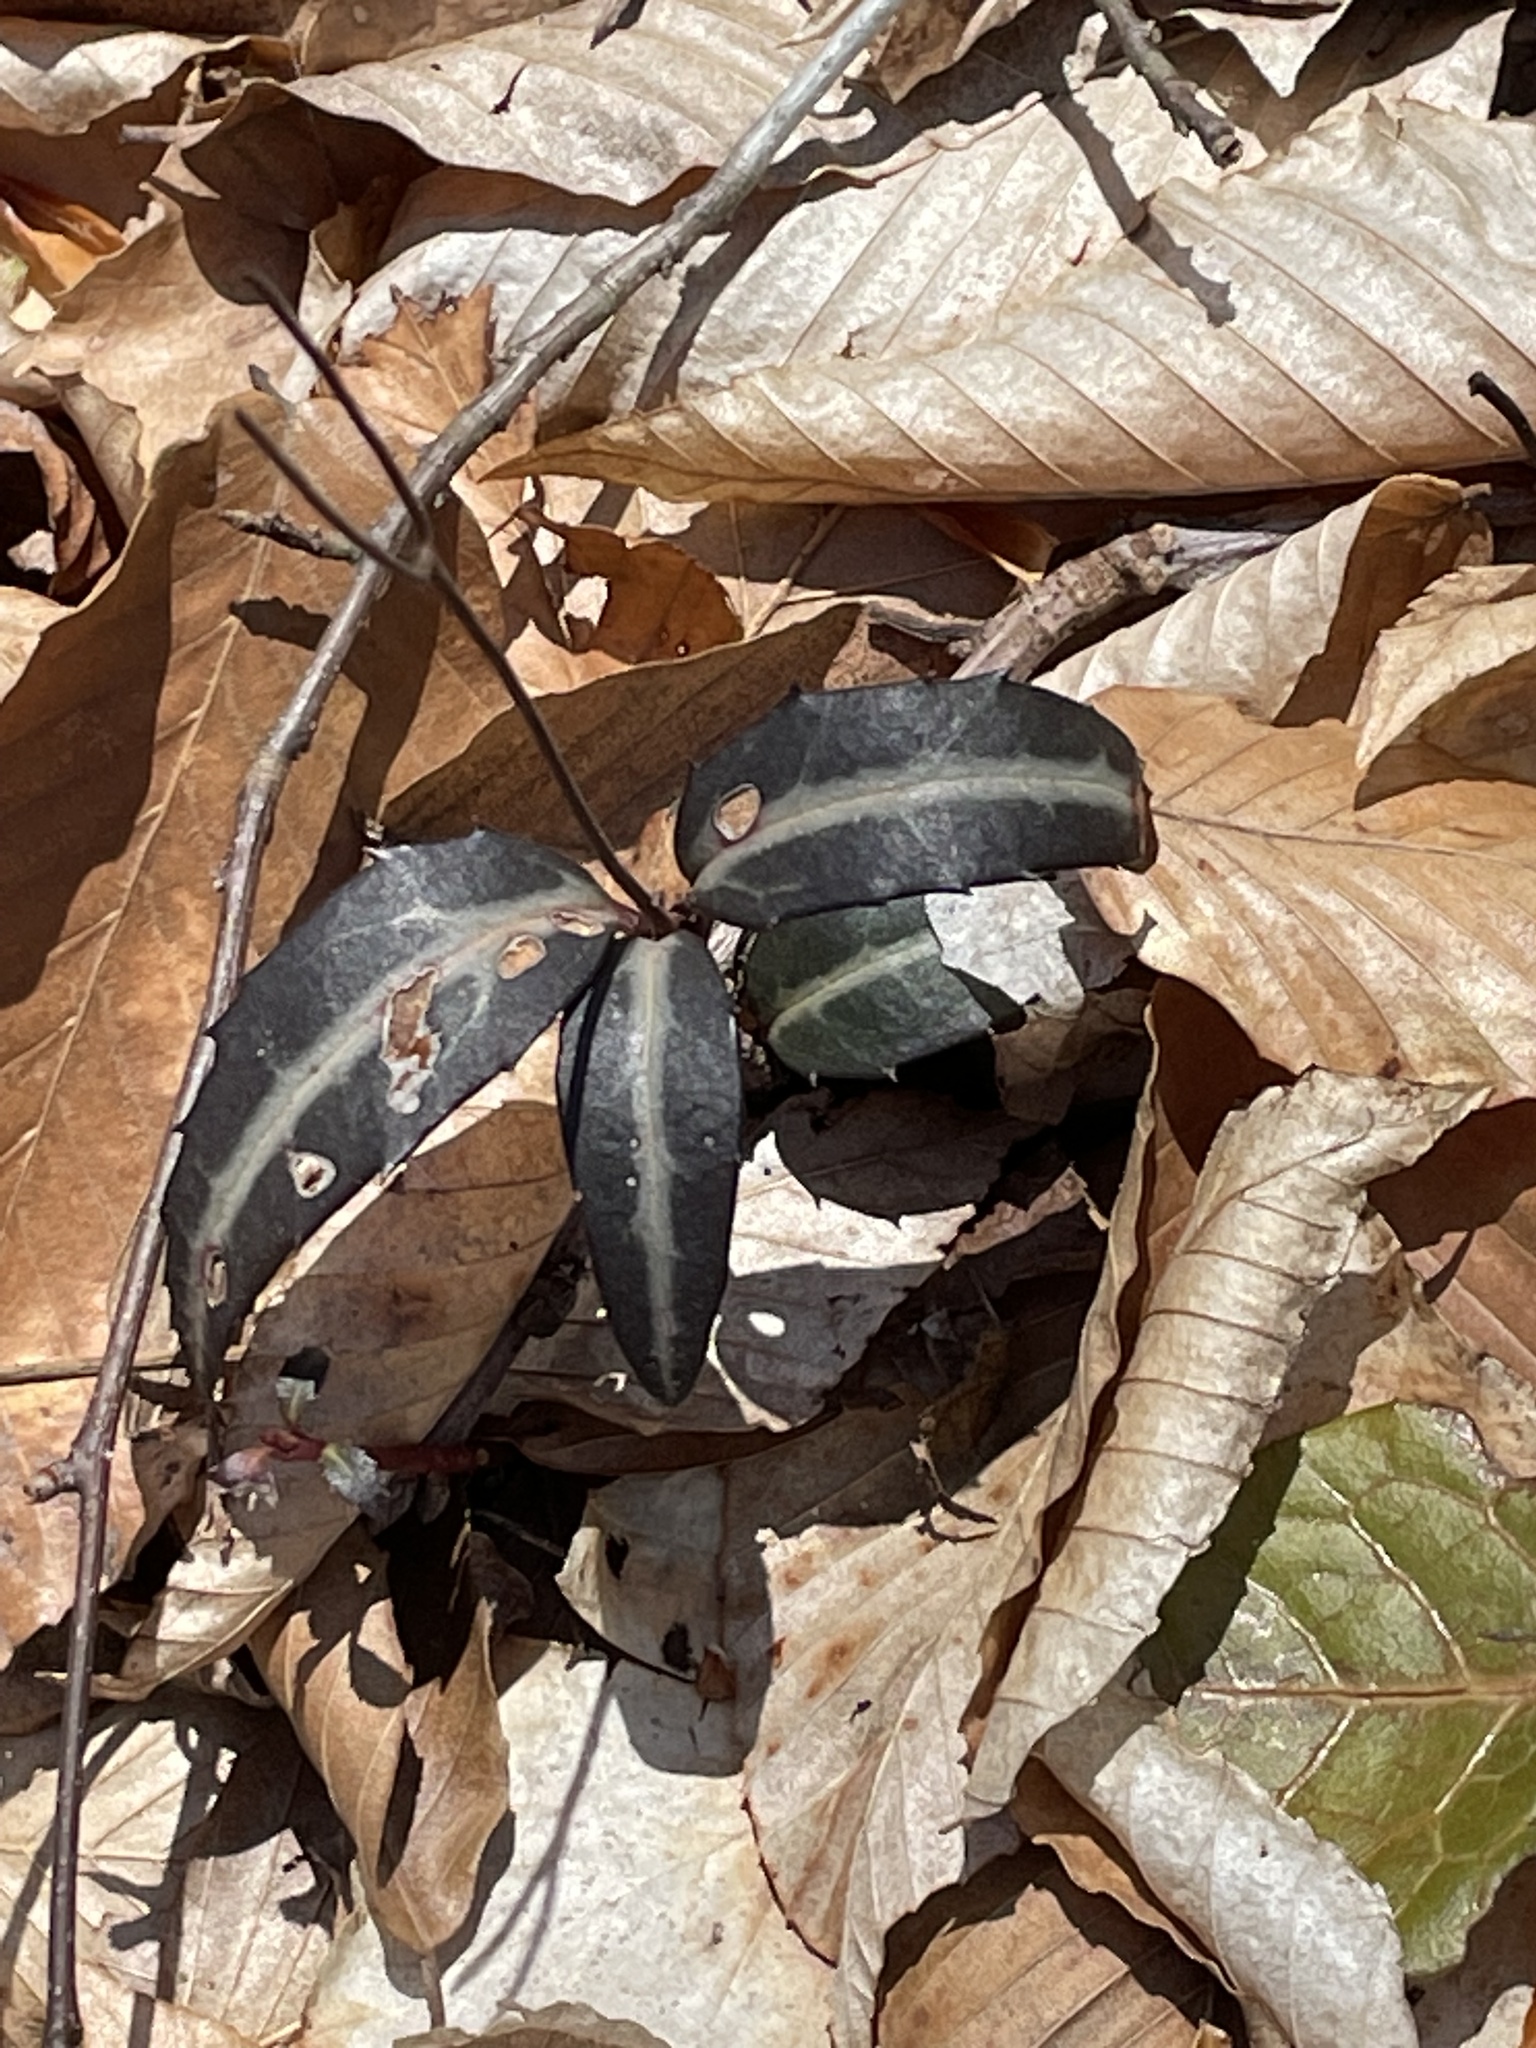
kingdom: Plantae
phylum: Tracheophyta
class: Magnoliopsida
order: Ericales
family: Ericaceae
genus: Chimaphila
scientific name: Chimaphila maculata
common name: Spotted pipsissewa
